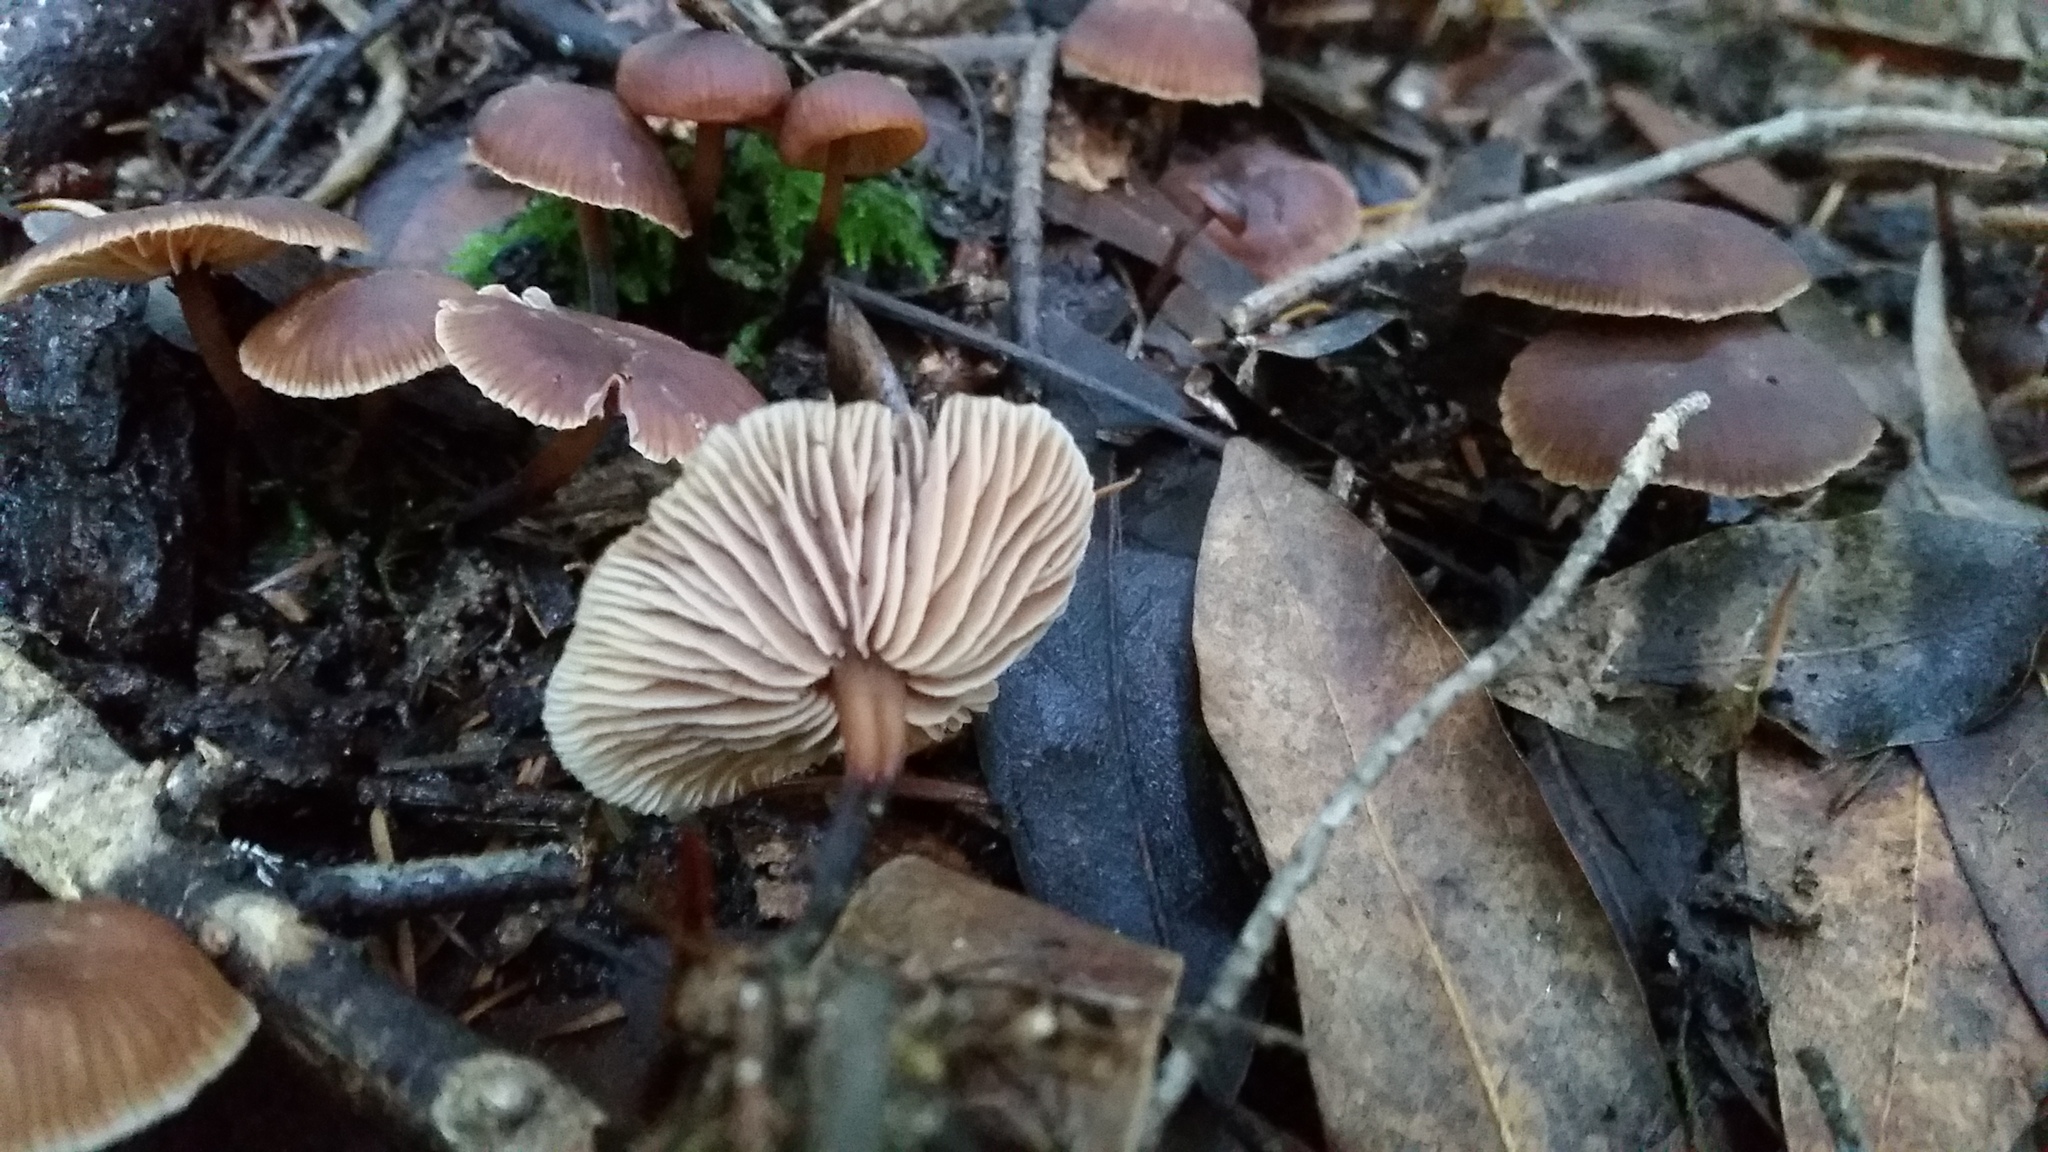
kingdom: Fungi
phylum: Basidiomycota
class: Agaricomycetes
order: Agaricales
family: Omphalotaceae
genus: Gymnopus
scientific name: Gymnopus brassicolens
